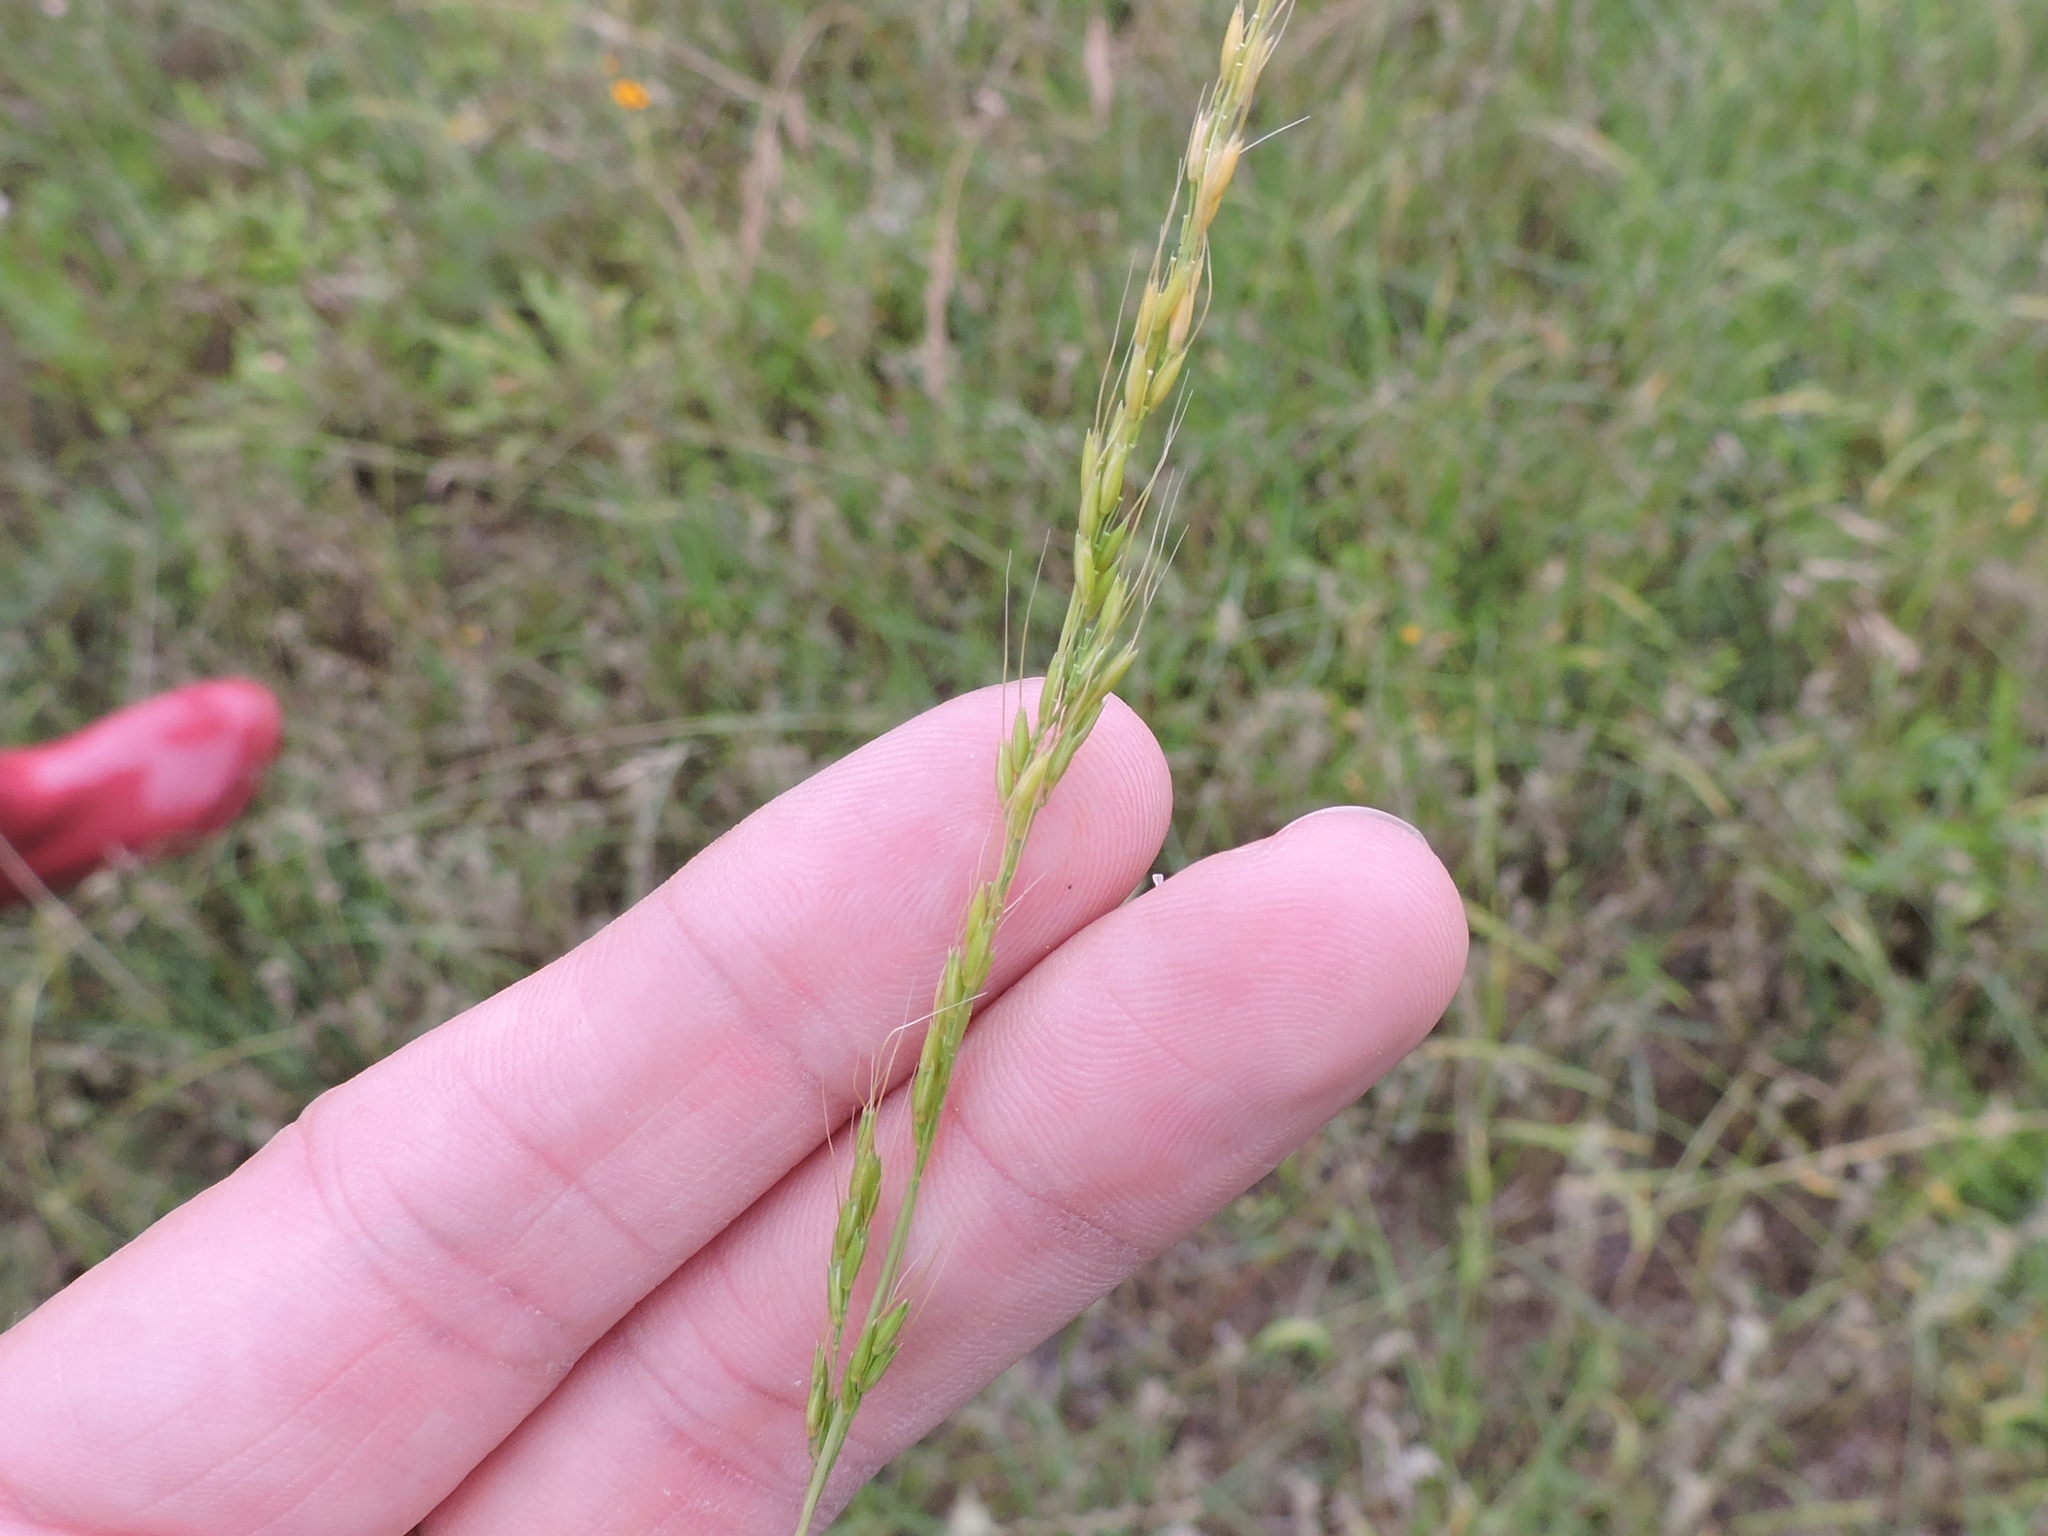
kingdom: Plantae
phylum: Tracheophyta
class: Liliopsida
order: Poales
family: Poaceae
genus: Limnodea
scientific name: Limnodea arkansana
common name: Ozark-grass
